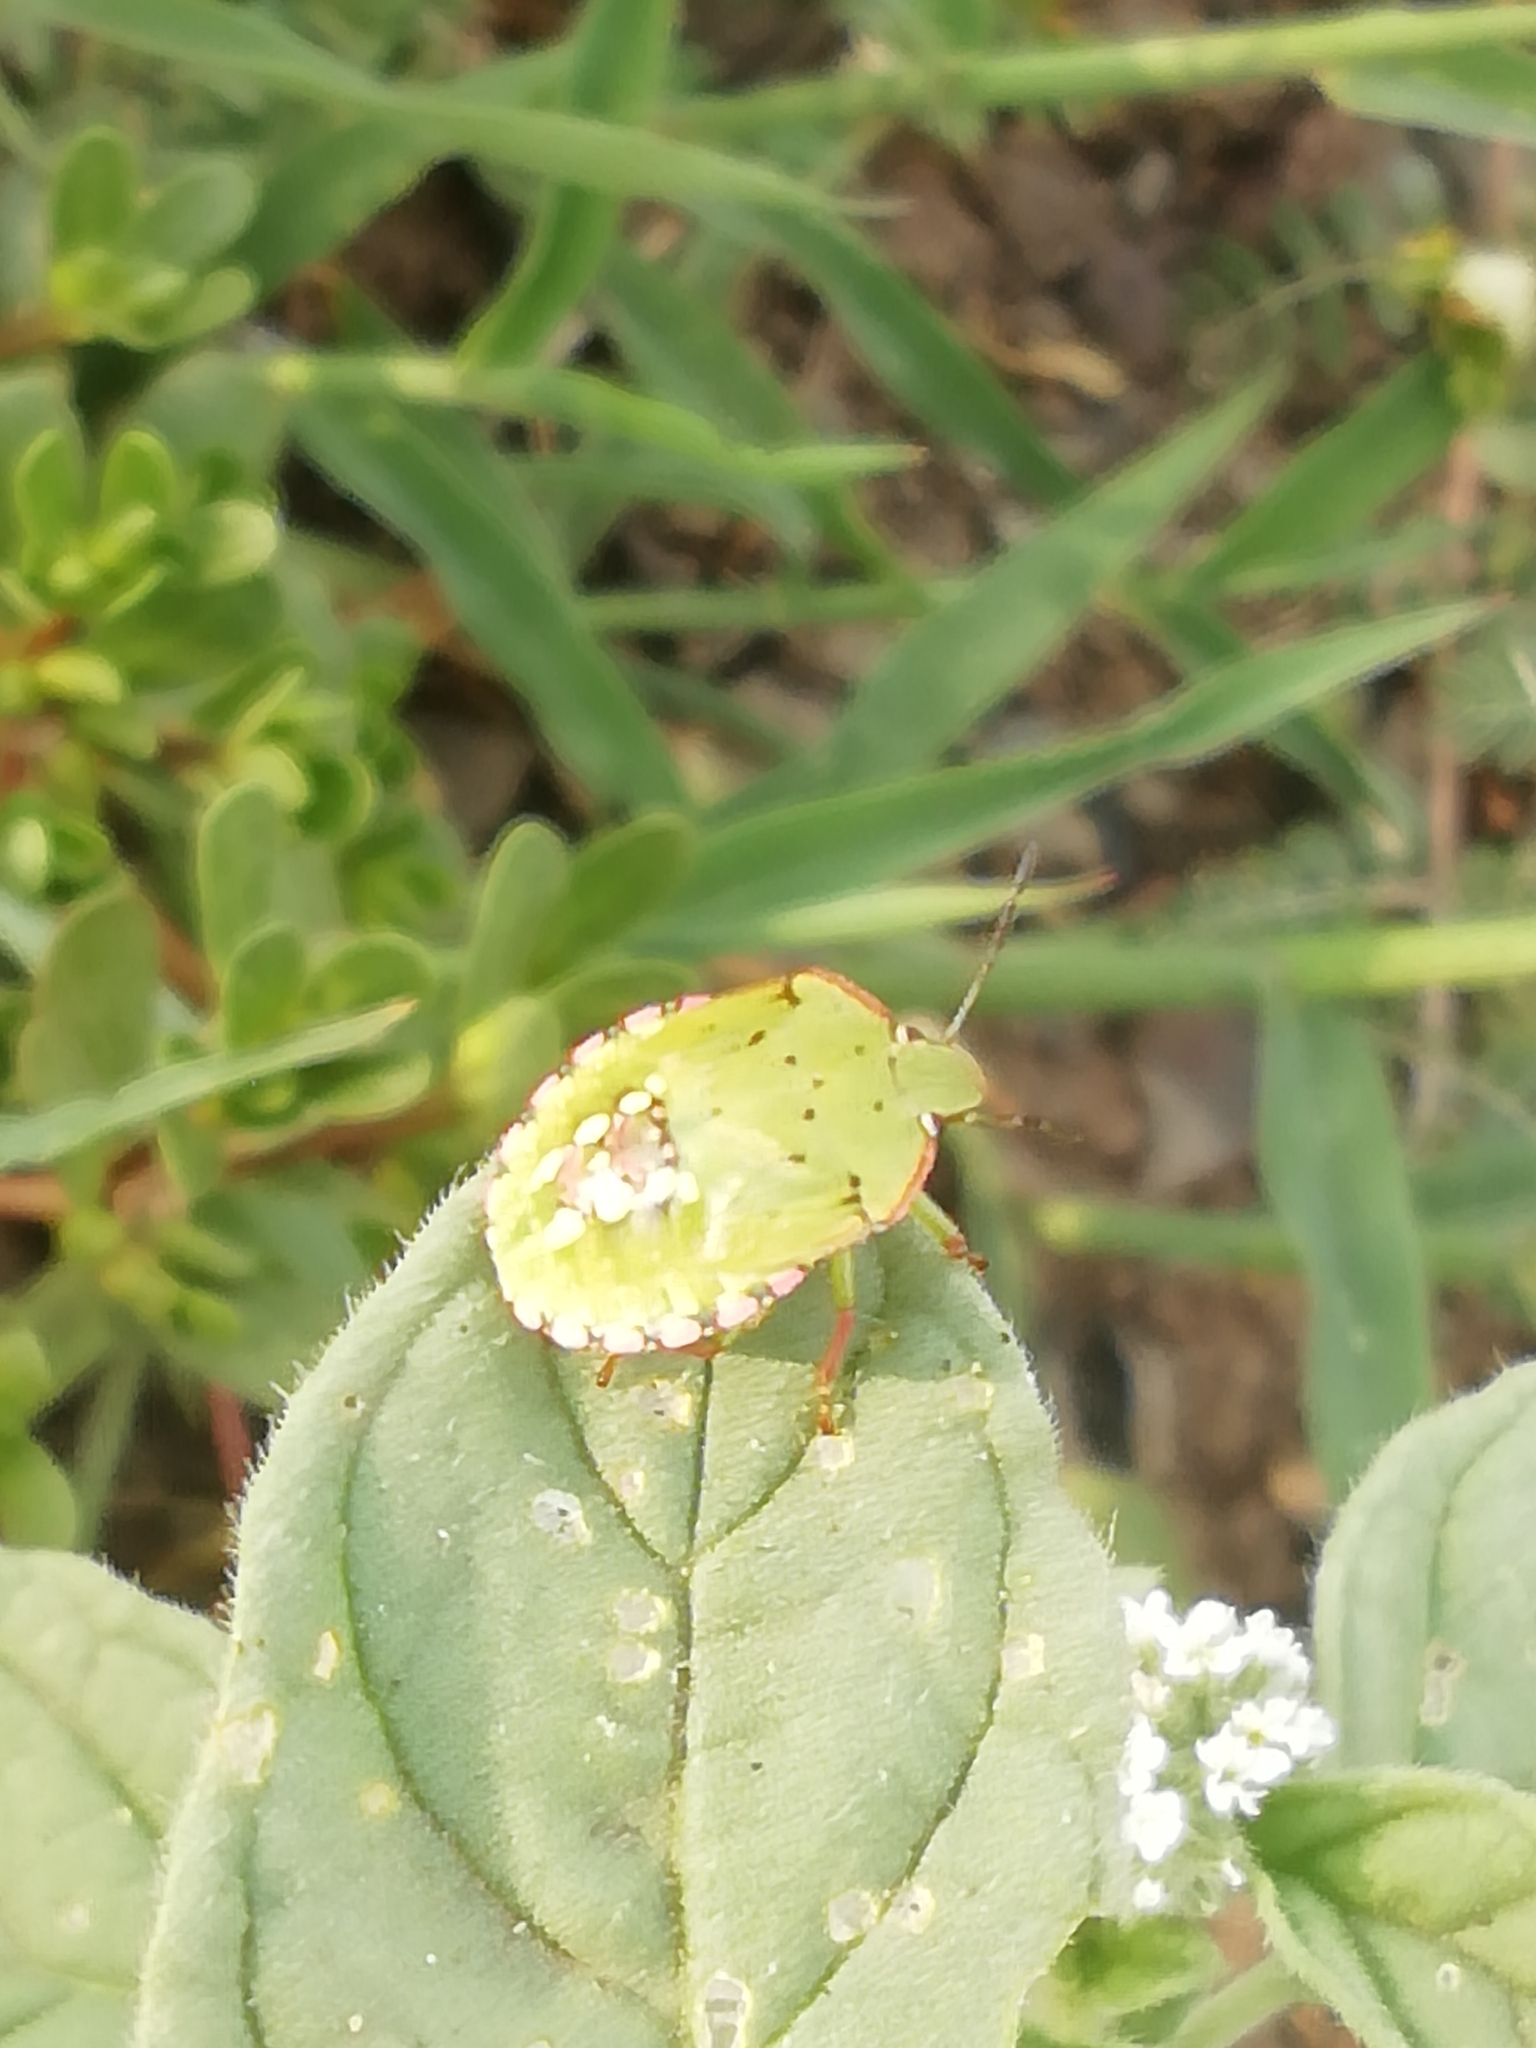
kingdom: Animalia
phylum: Arthropoda
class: Insecta
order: Hemiptera
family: Pentatomidae
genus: Nezara
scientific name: Nezara viridula
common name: Southern green stink bug
